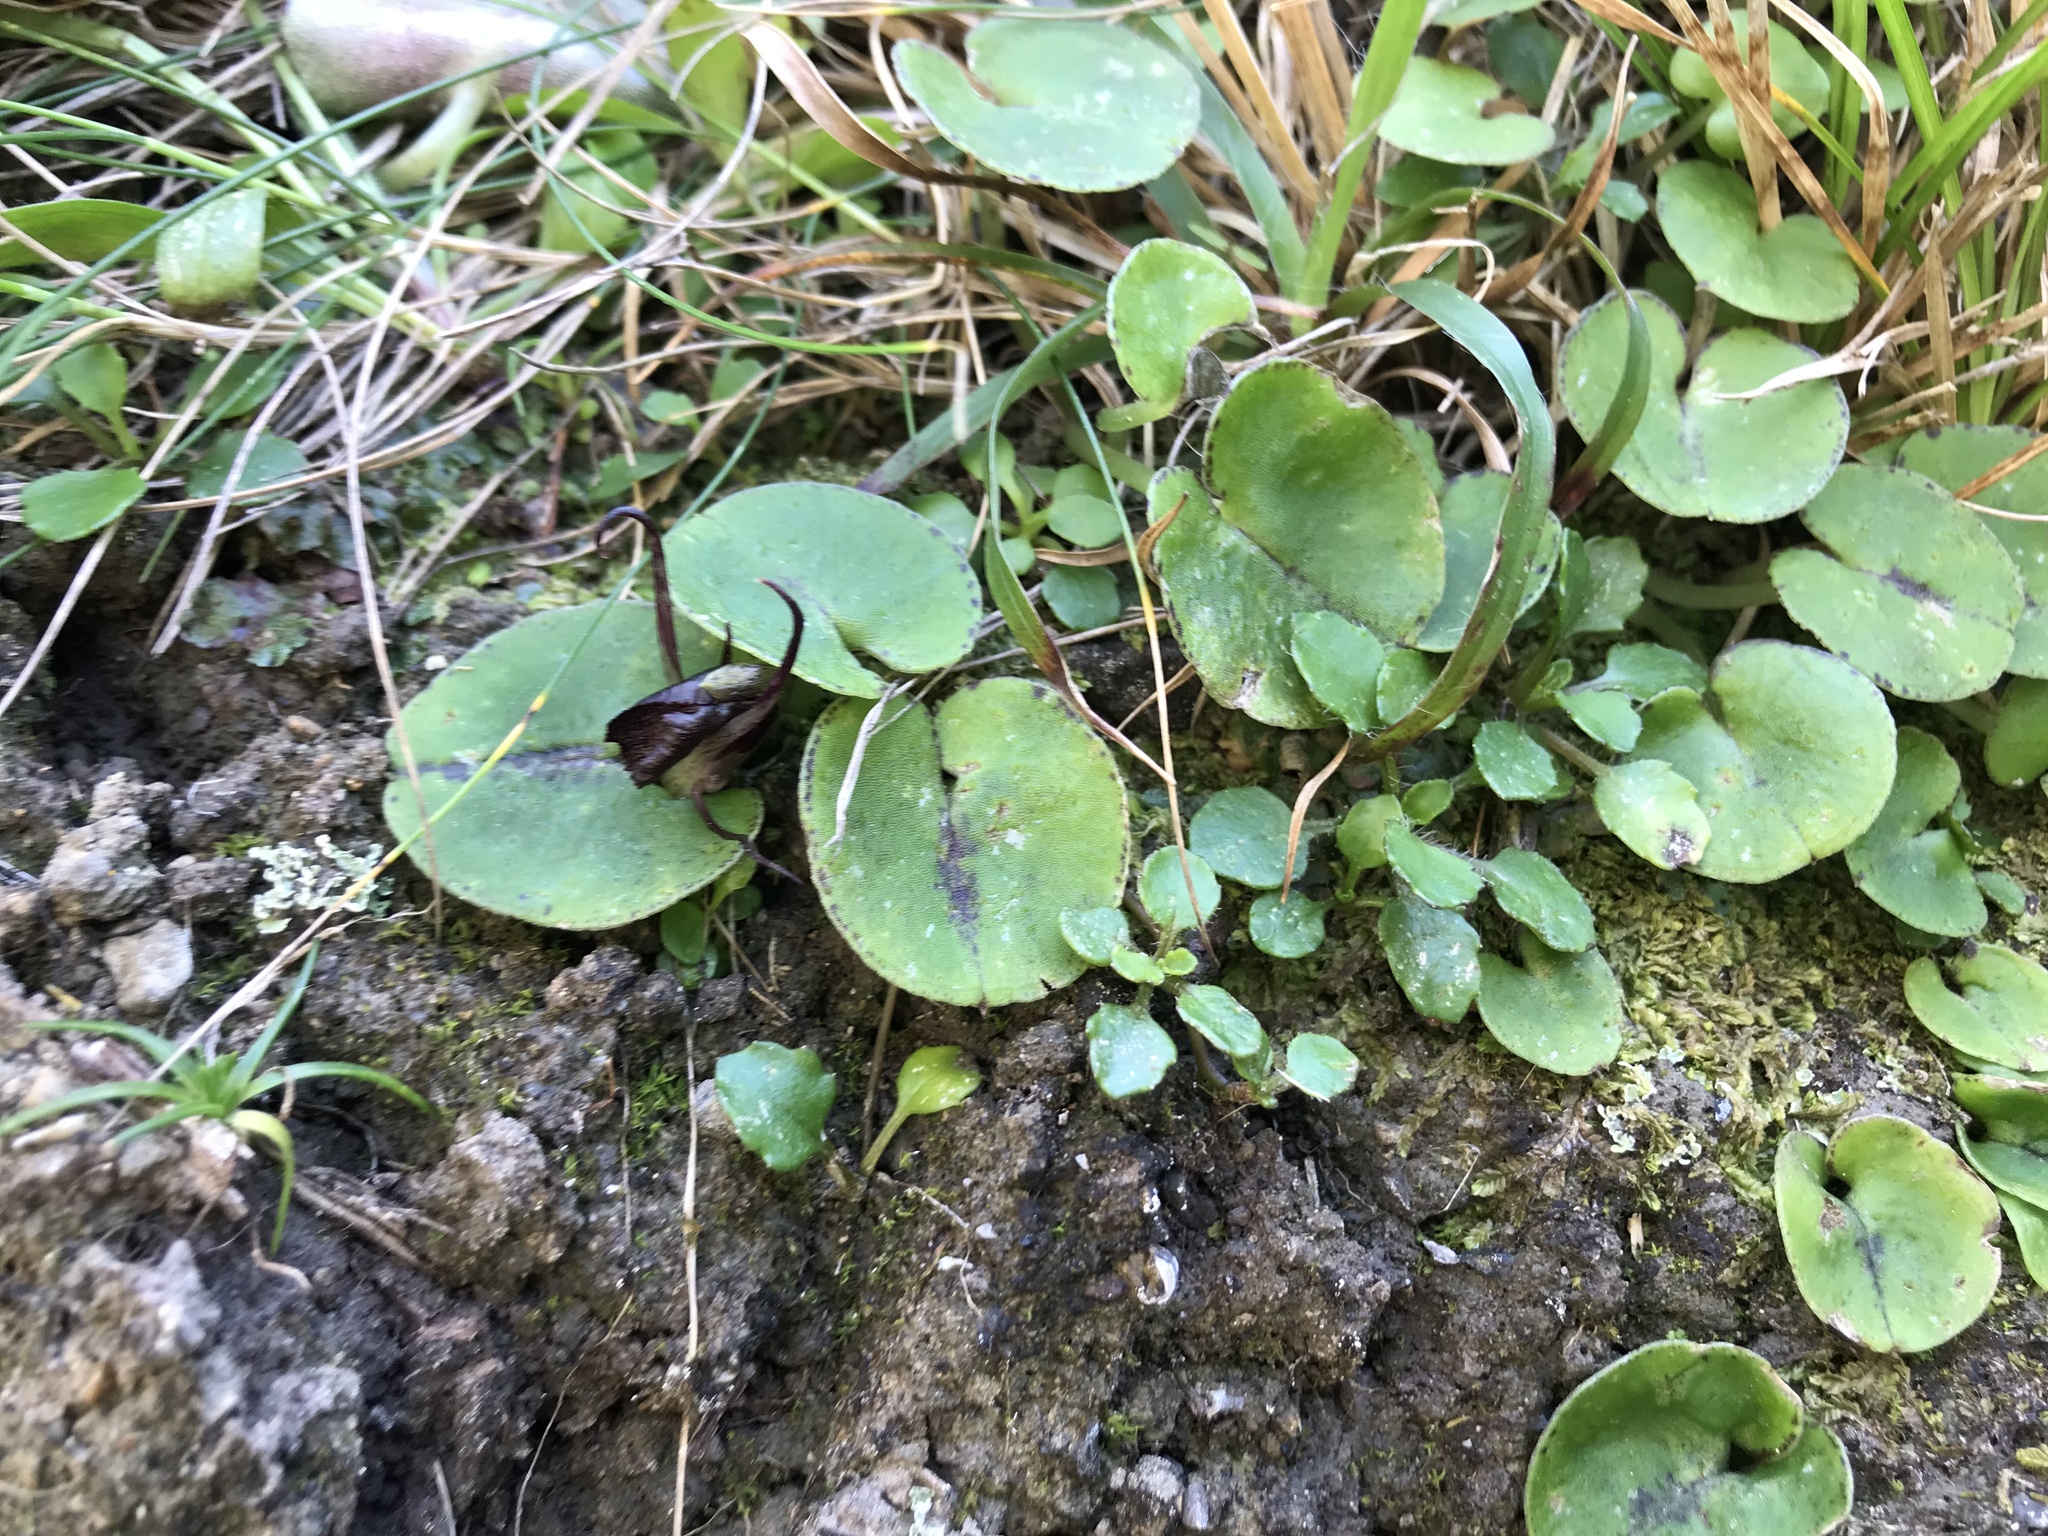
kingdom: Plantae
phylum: Tracheophyta
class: Liliopsida
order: Asparagales
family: Orchidaceae
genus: Corybas
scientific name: Corybas macranthus
